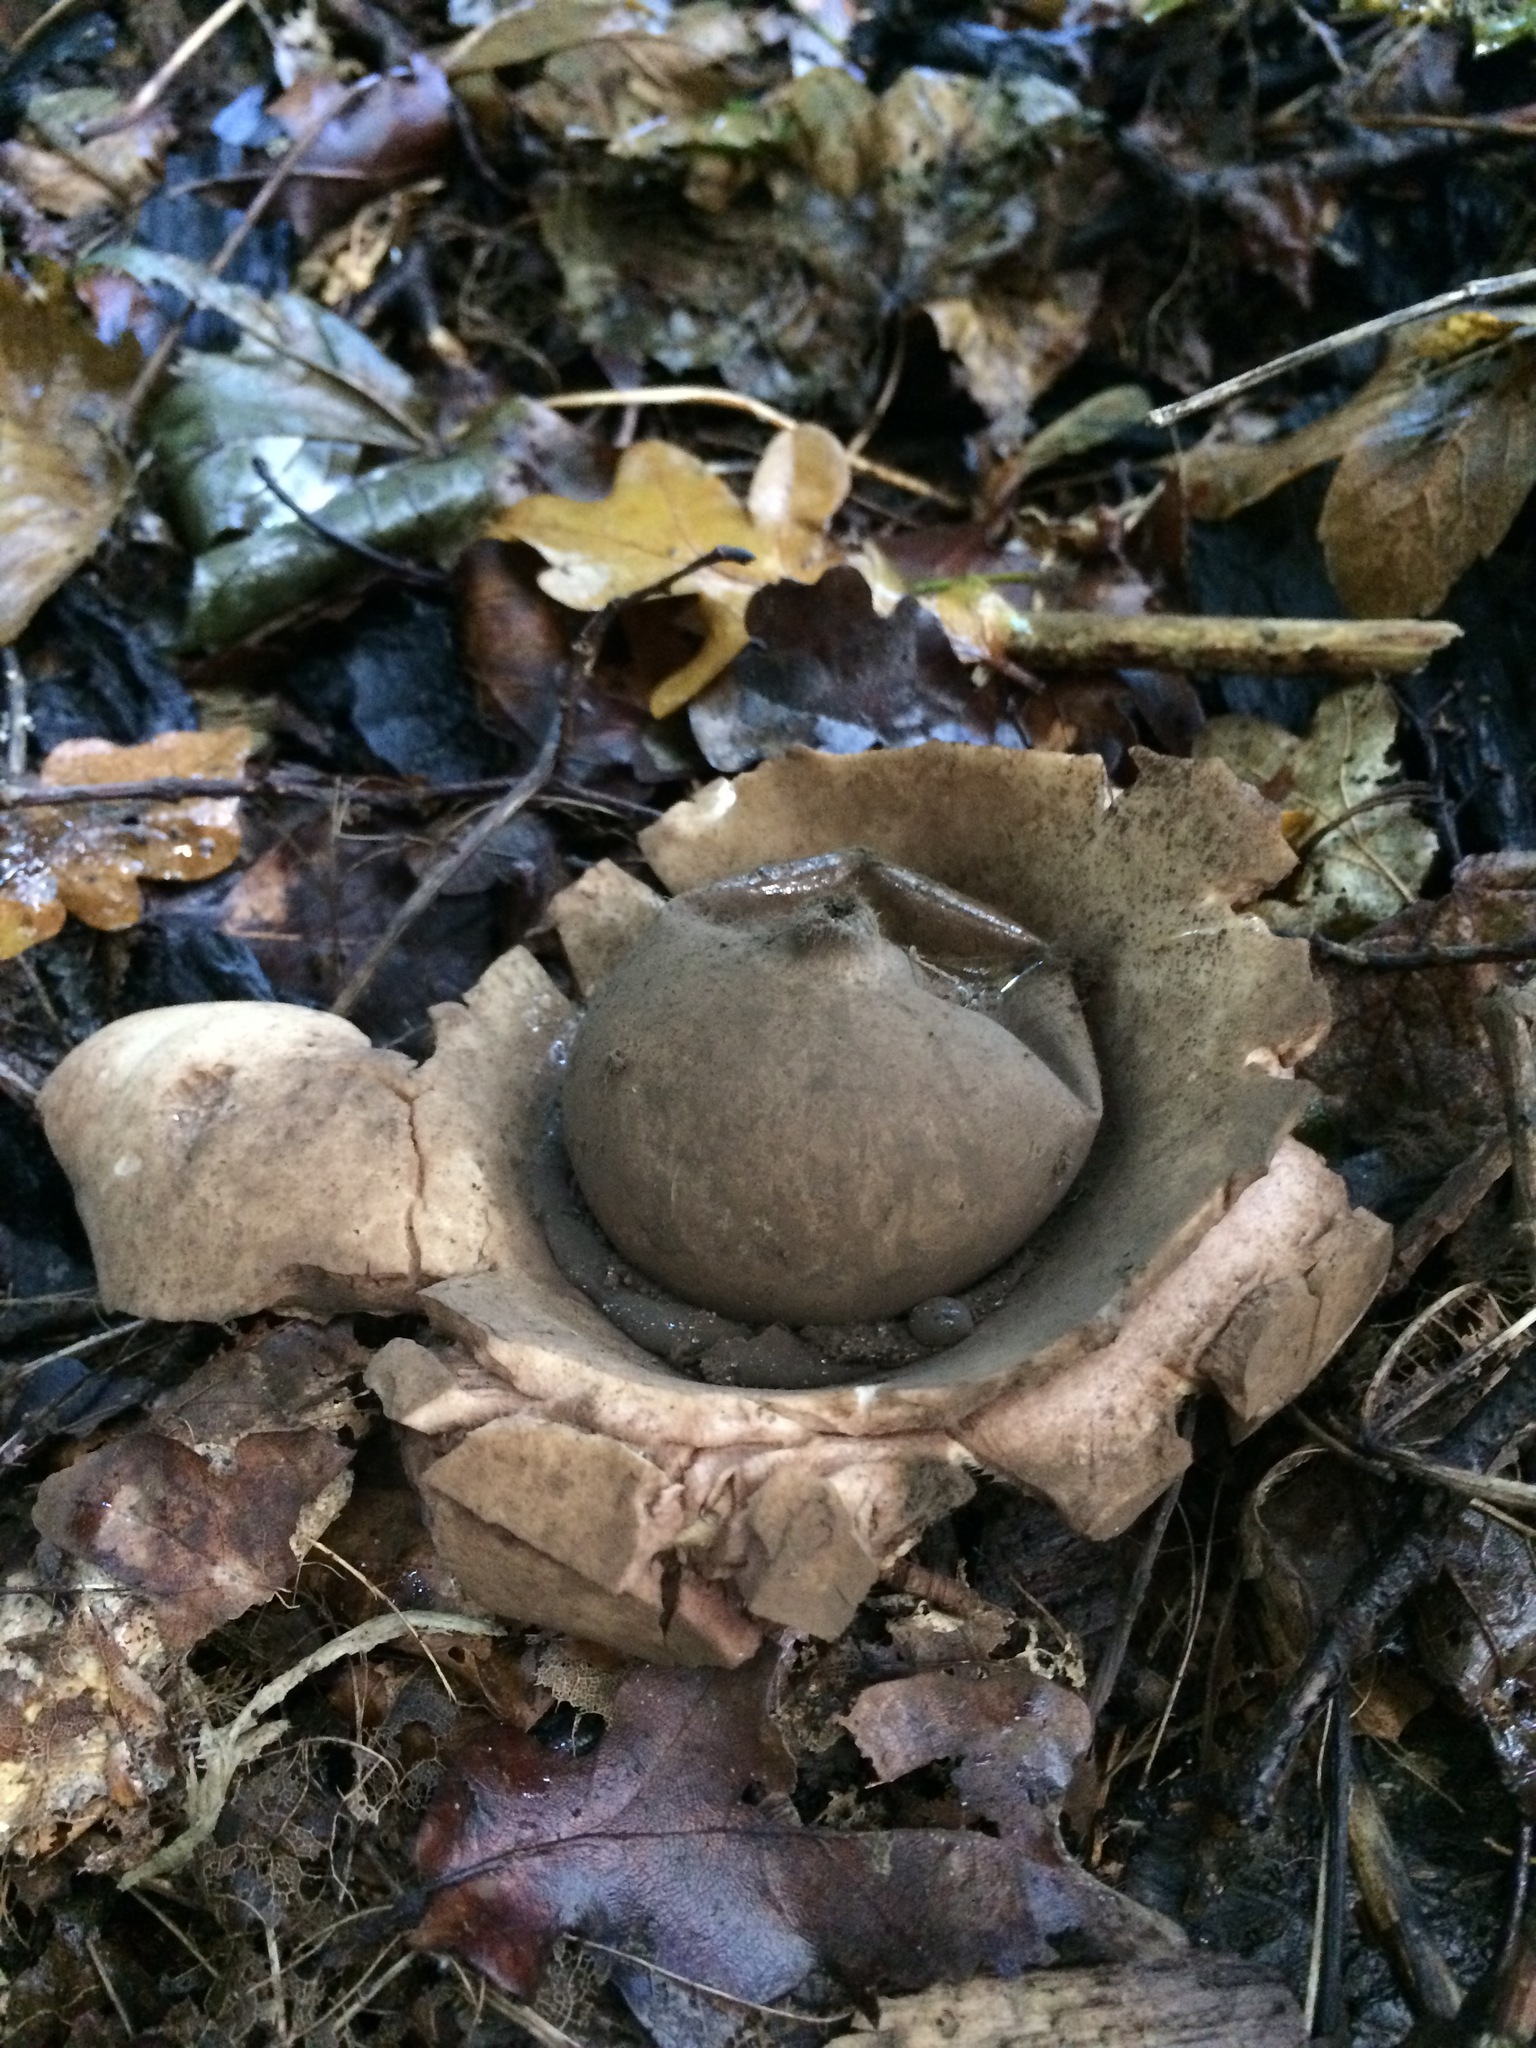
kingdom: Fungi
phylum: Basidiomycota
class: Agaricomycetes
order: Geastrales
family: Geastraceae
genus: Geastrum
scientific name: Geastrum triplex
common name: Collared earthstar
